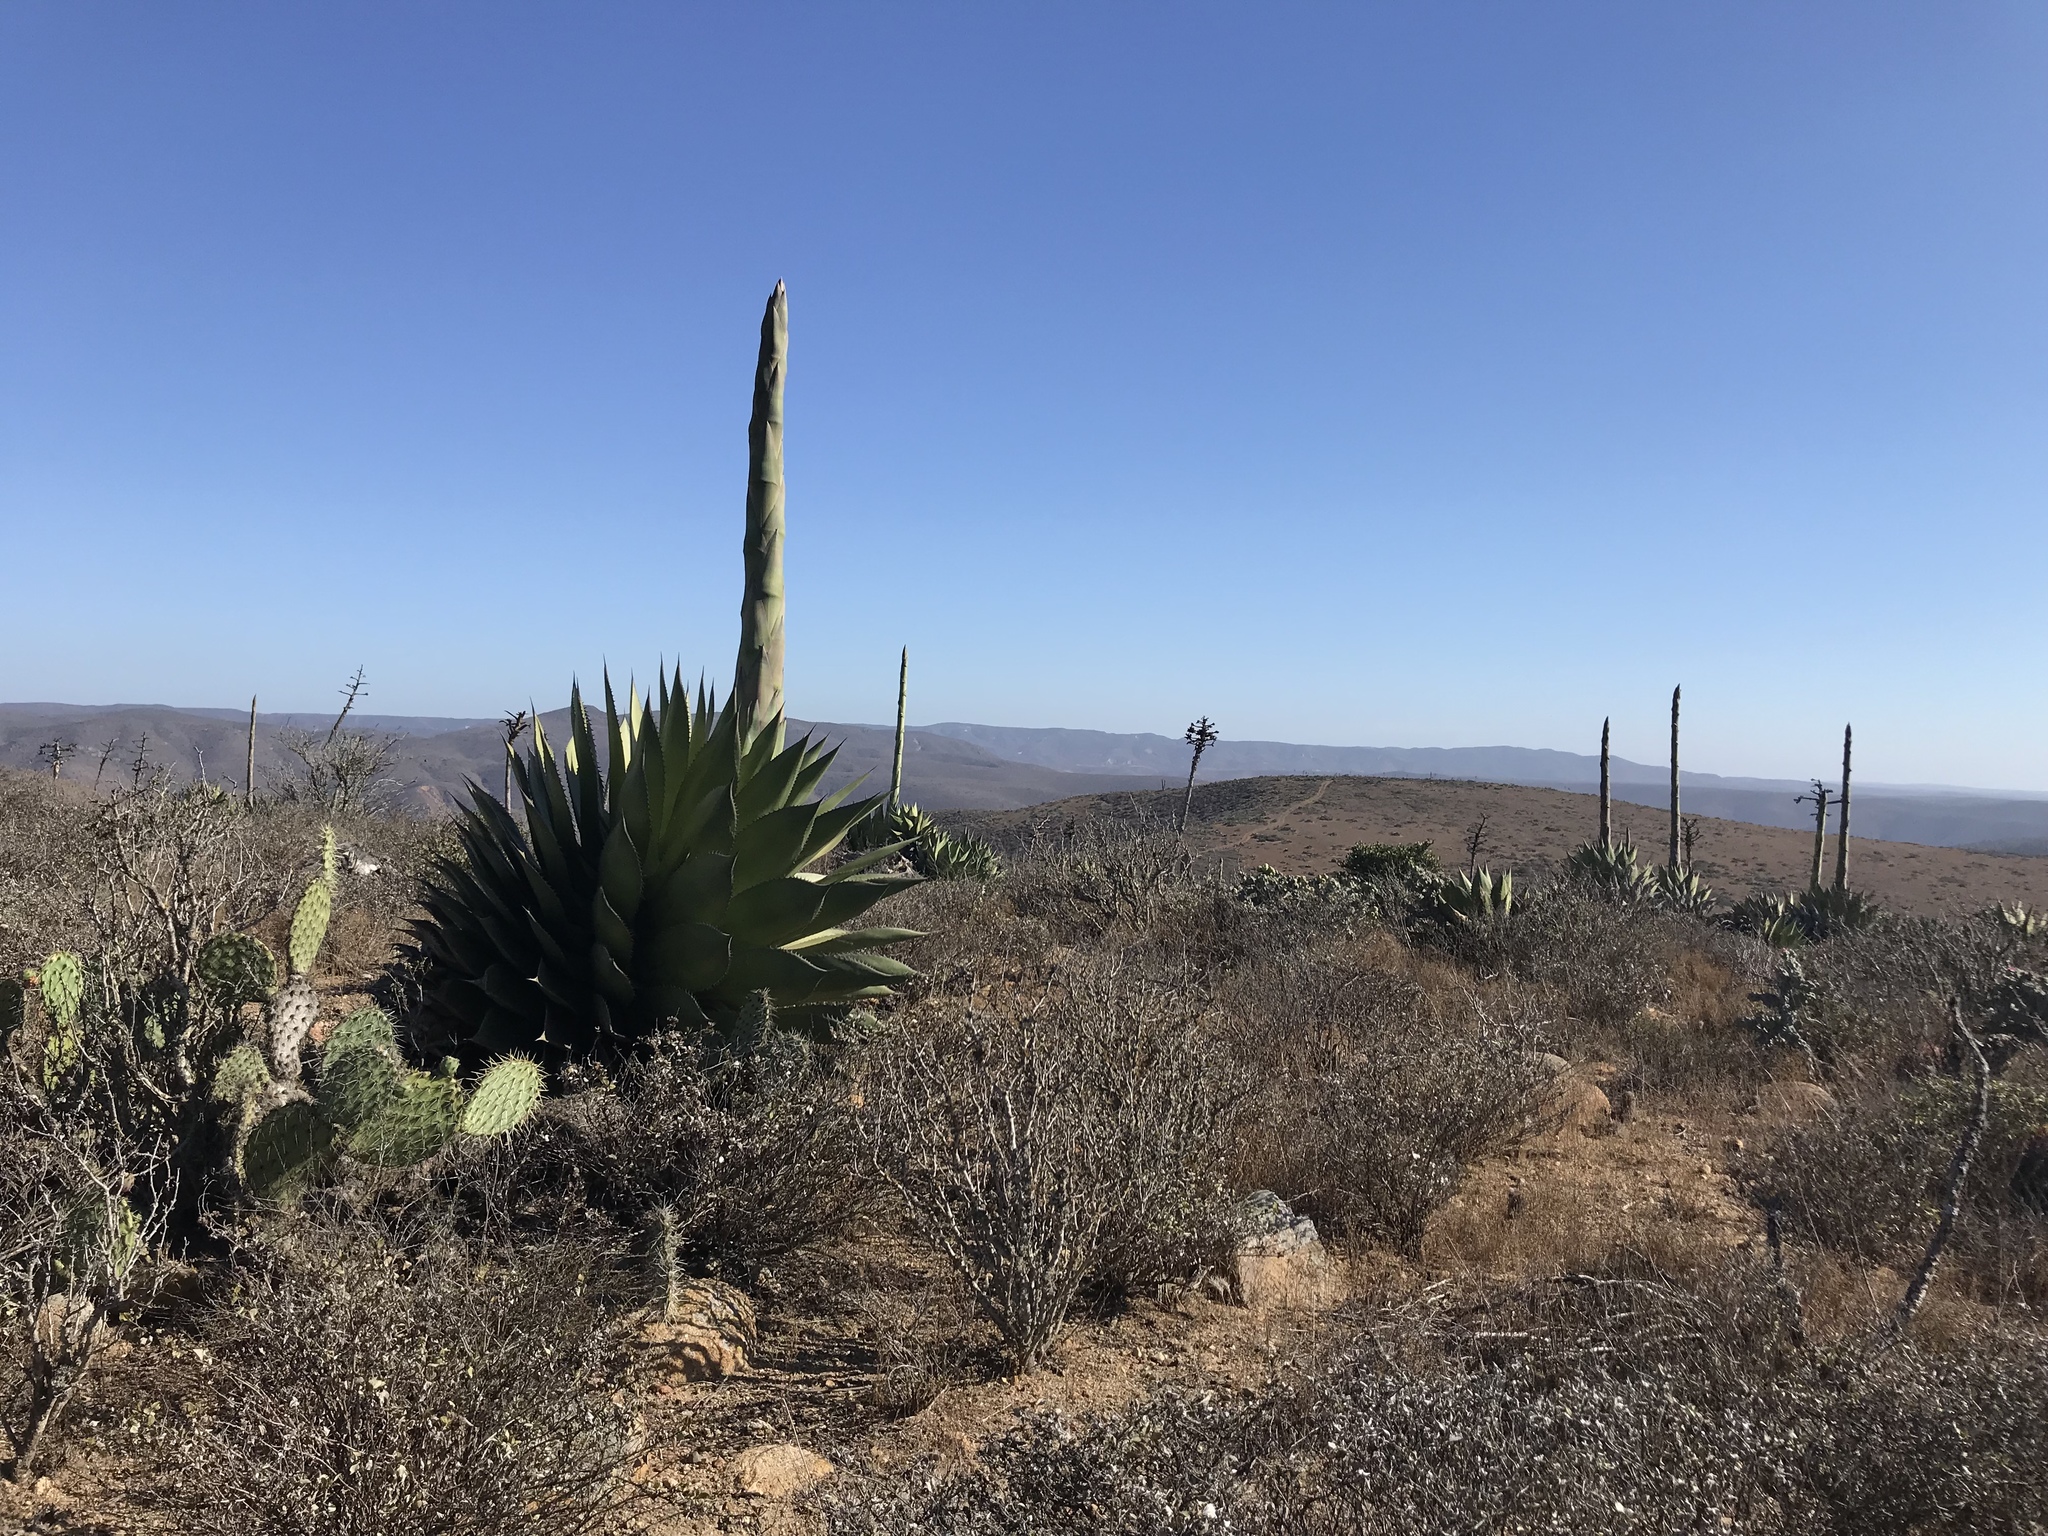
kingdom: Plantae
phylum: Tracheophyta
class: Liliopsida
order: Asparagales
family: Asparagaceae
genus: Agave
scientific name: Agave shawii
